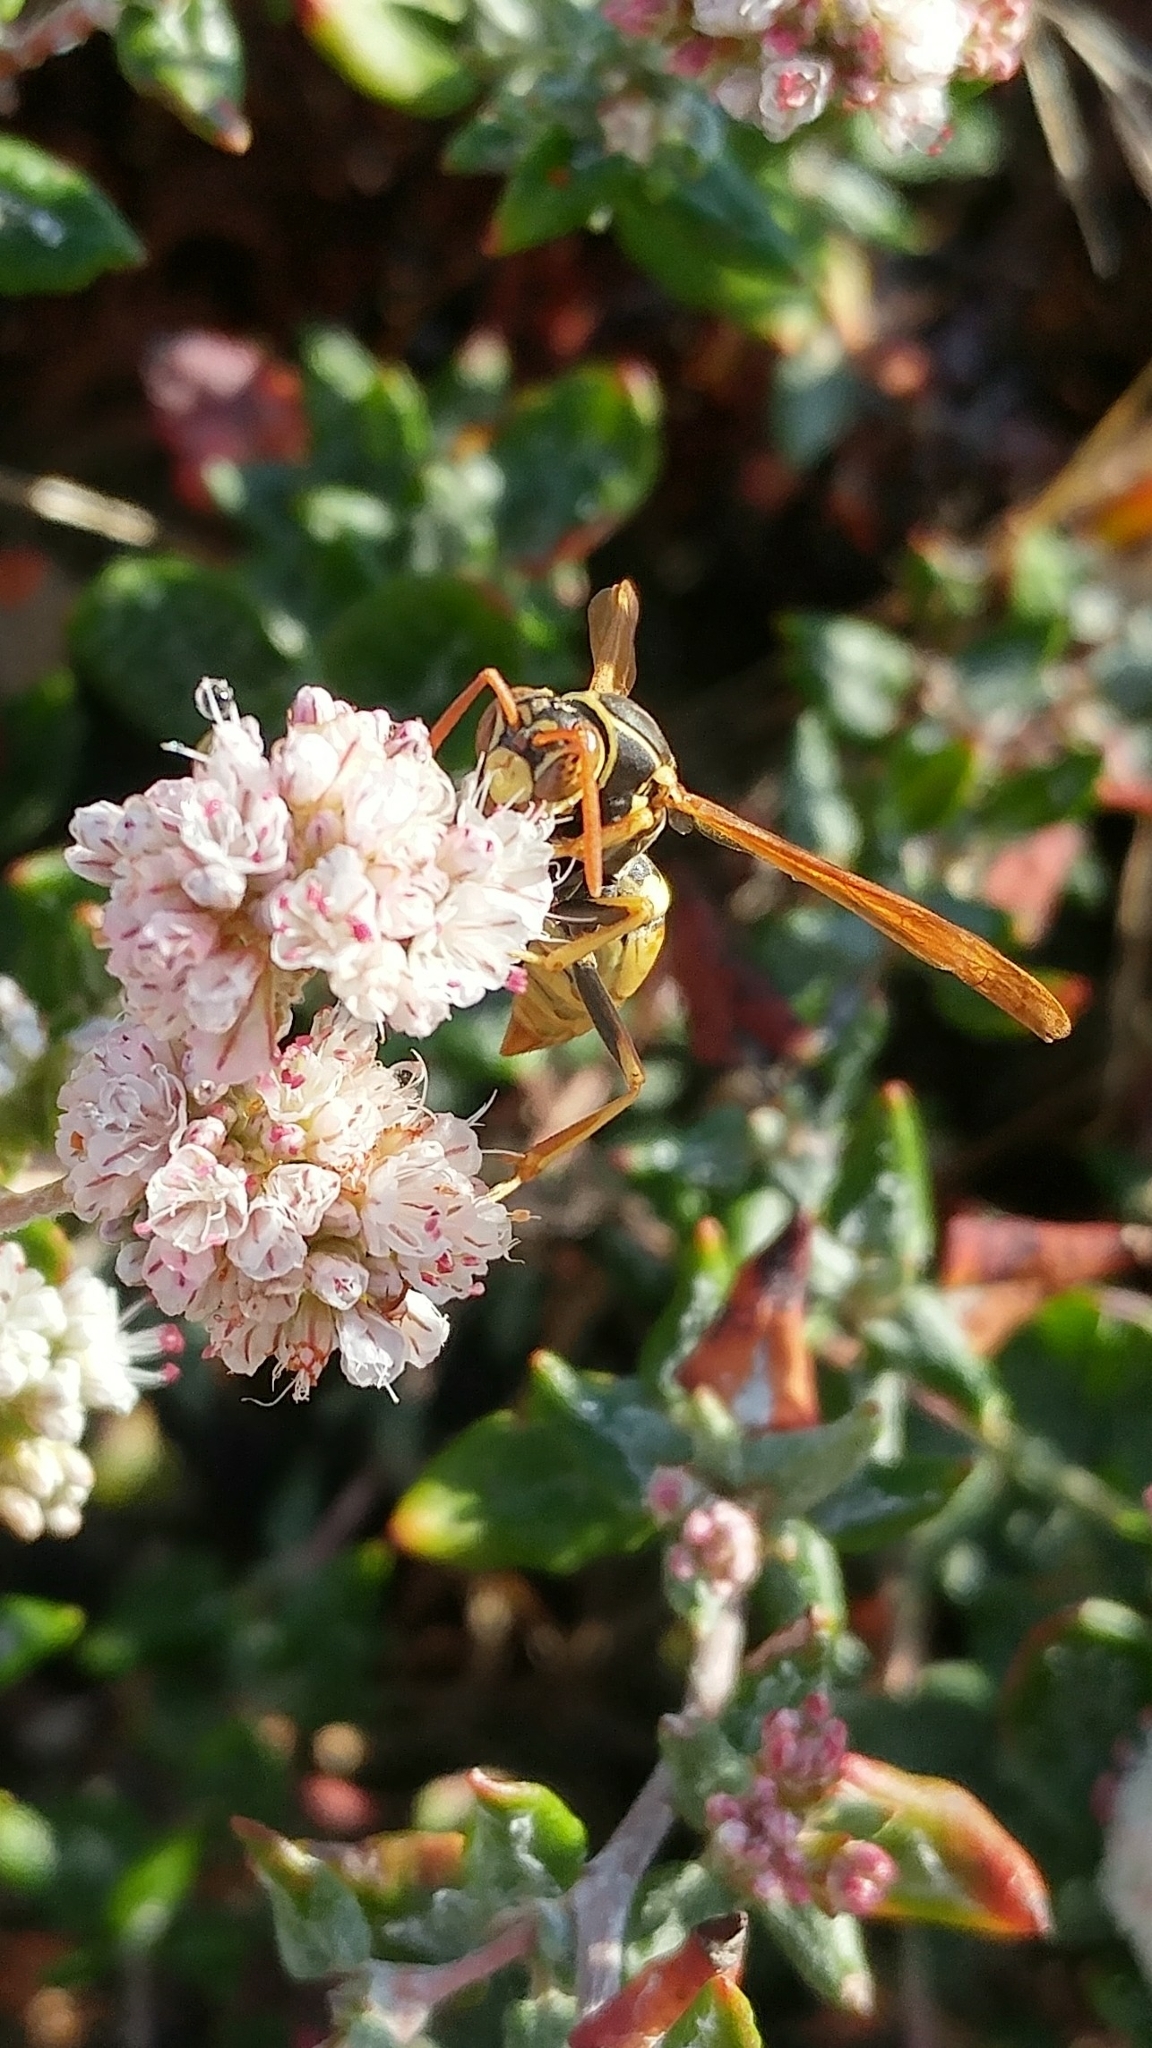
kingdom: Animalia
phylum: Arthropoda
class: Insecta
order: Hymenoptera
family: Eumenidae
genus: Polistes
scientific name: Polistes aurifer
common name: Paper wasp
